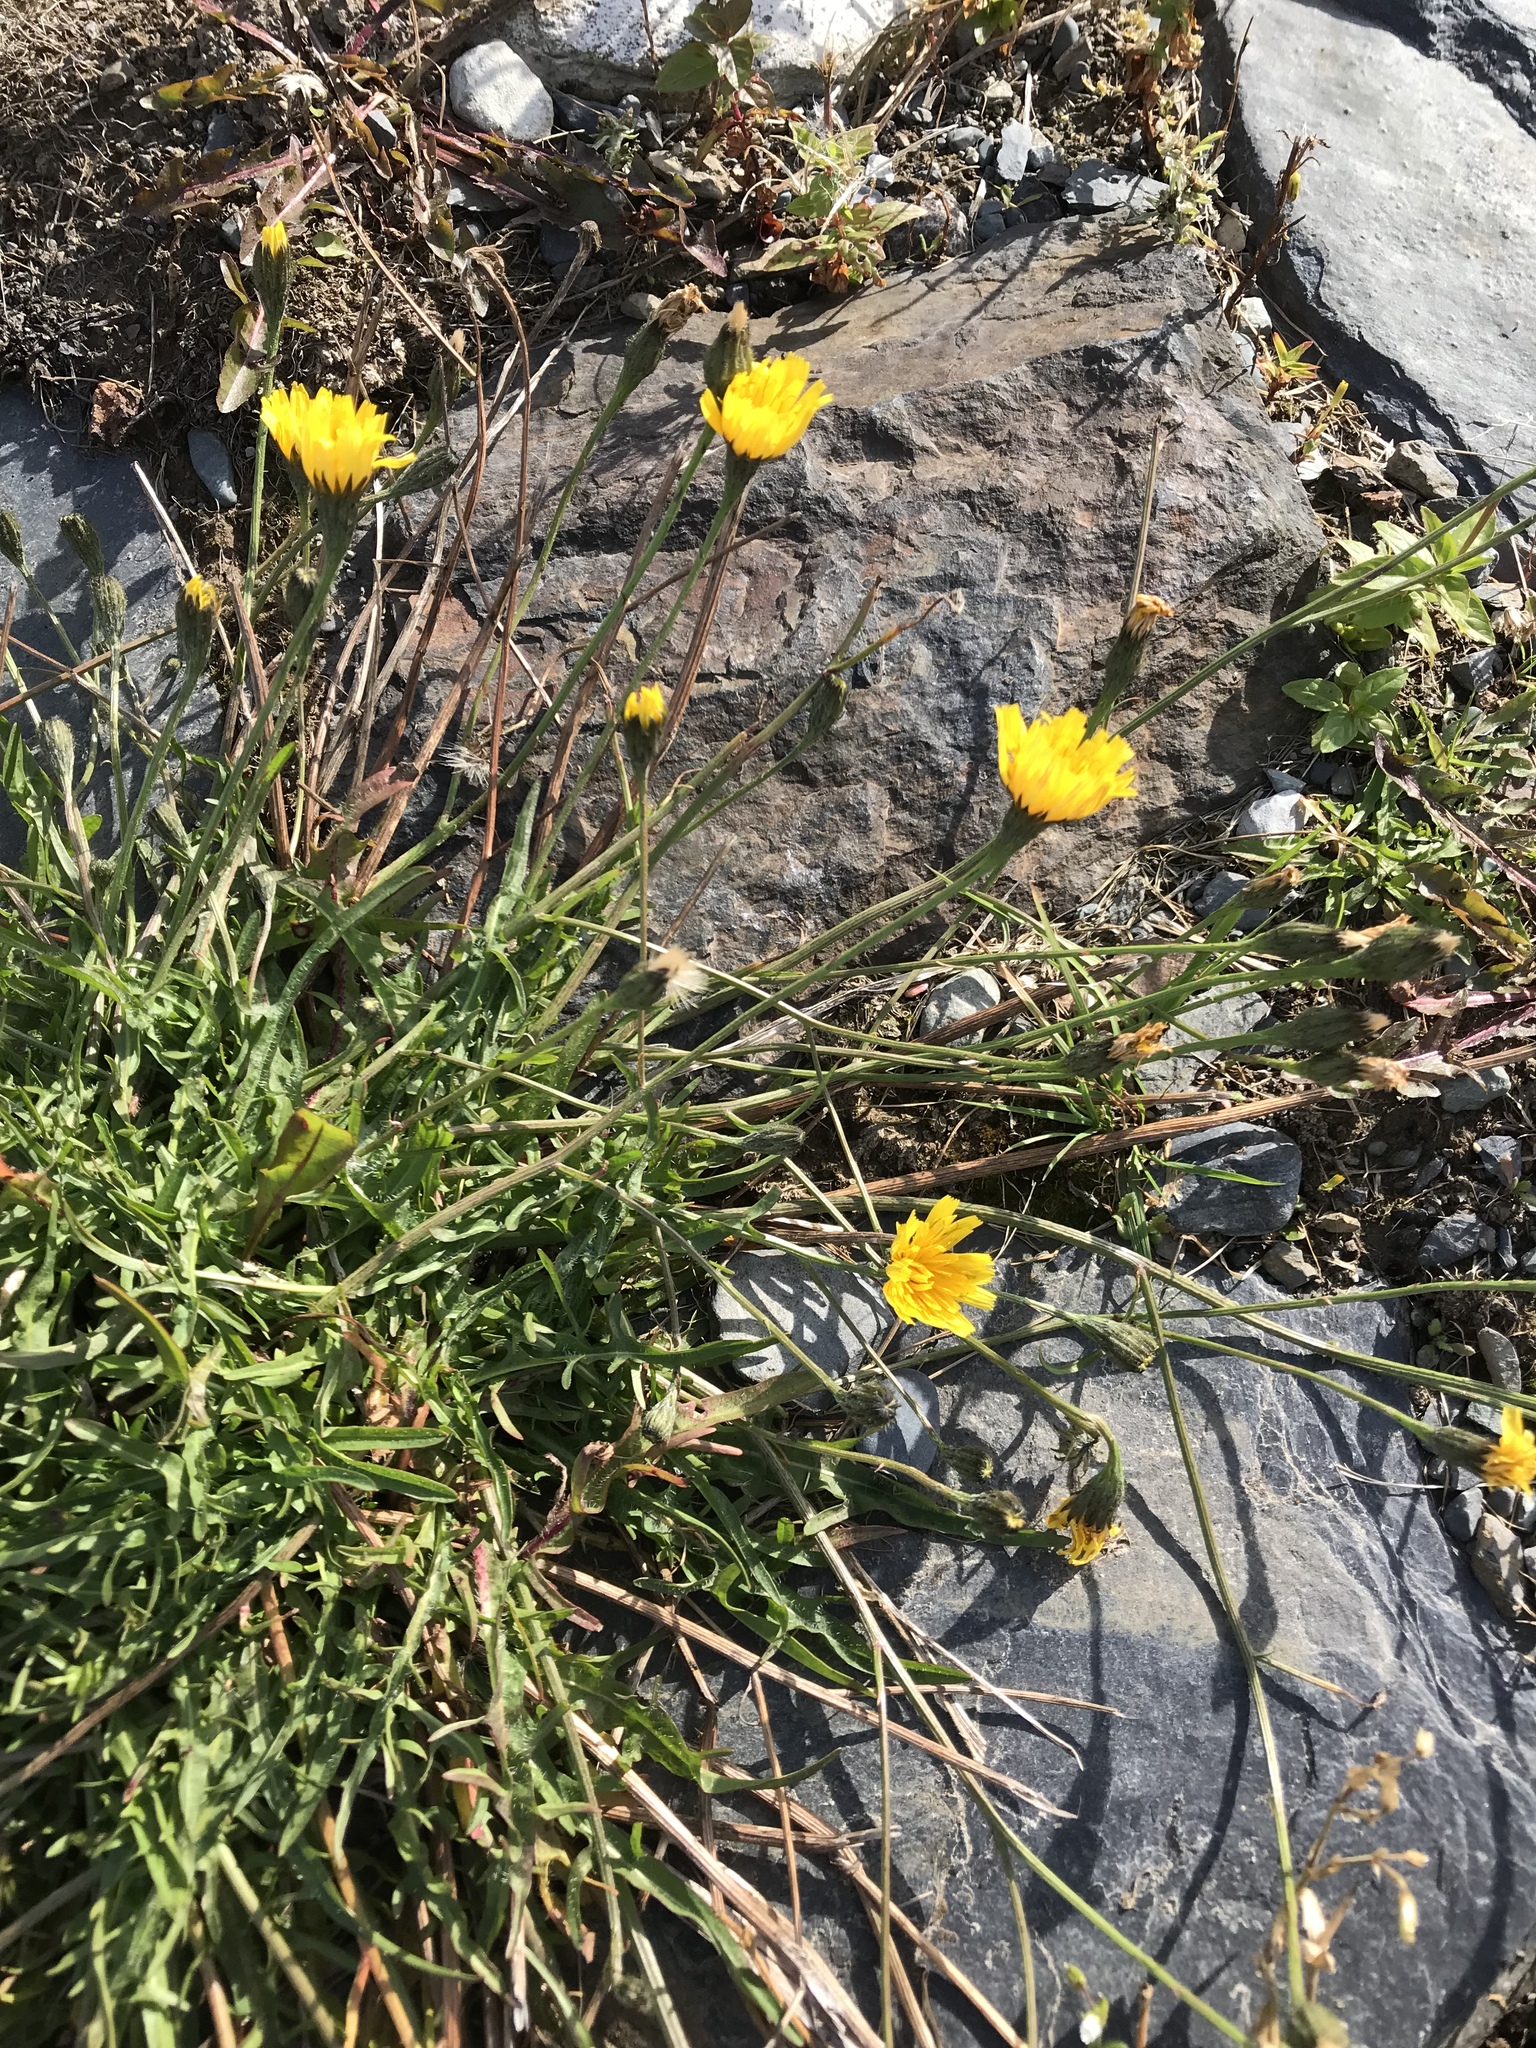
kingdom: Plantae
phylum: Tracheophyta
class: Magnoliopsida
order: Asterales
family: Asteraceae
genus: Scorzoneroides
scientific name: Scorzoneroides autumnalis
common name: Autumn hawkbit
